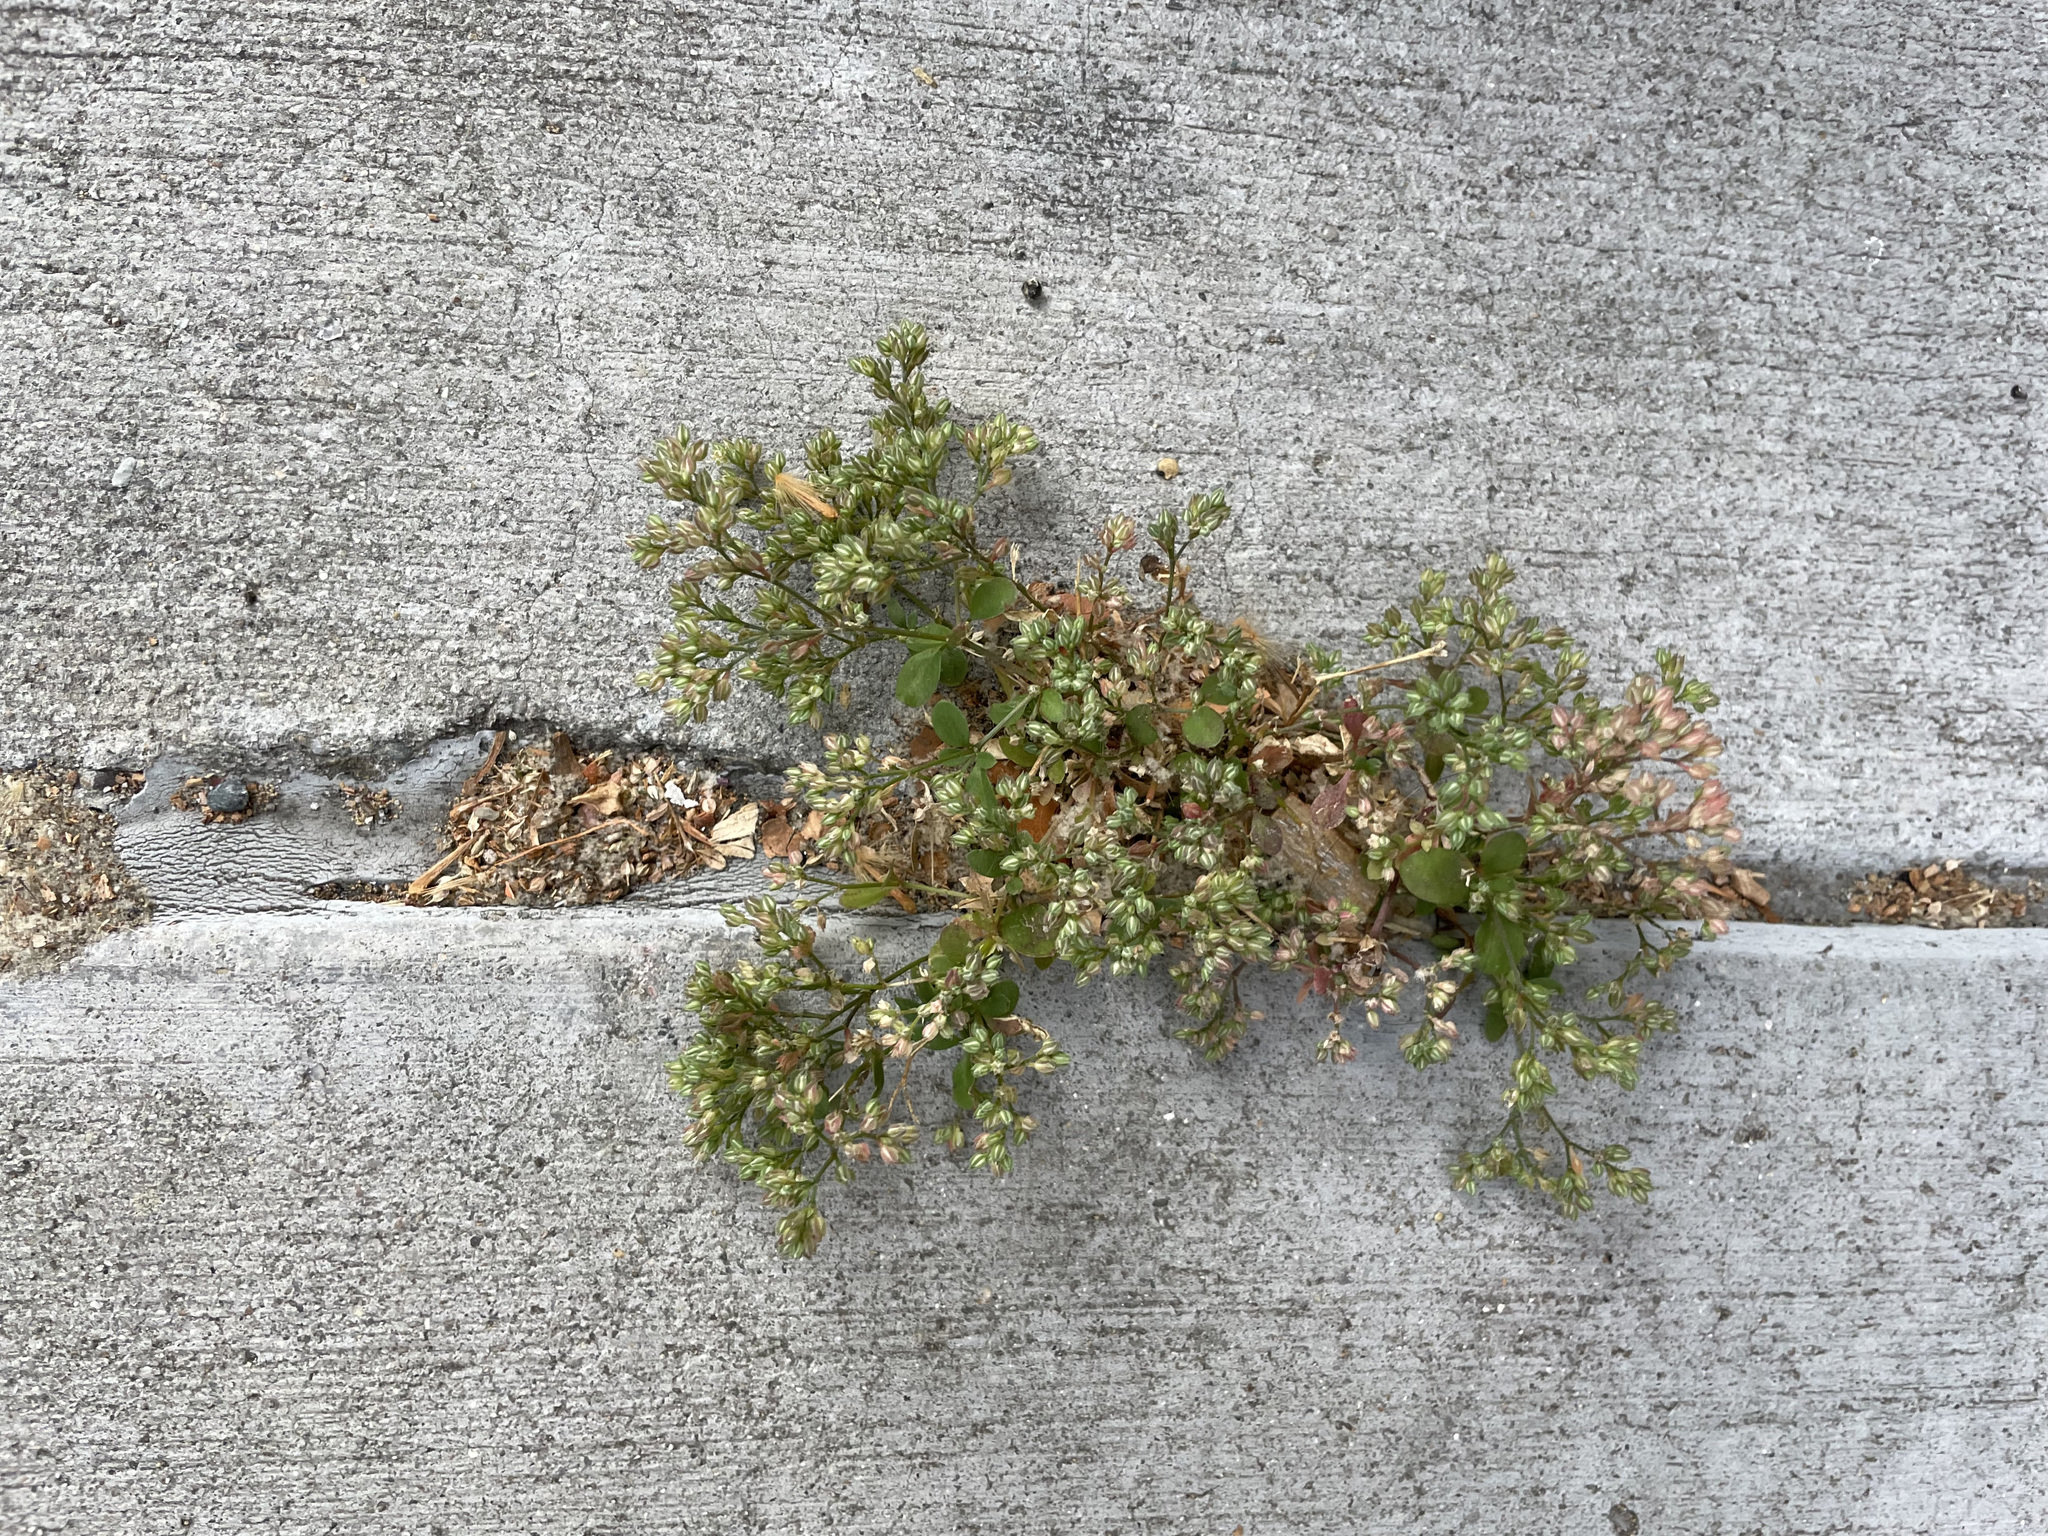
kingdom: Plantae
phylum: Tracheophyta
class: Magnoliopsida
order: Caryophyllales
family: Caryophyllaceae
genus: Polycarpon
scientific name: Polycarpon tetraphyllum
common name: Four-leaved all-seed
